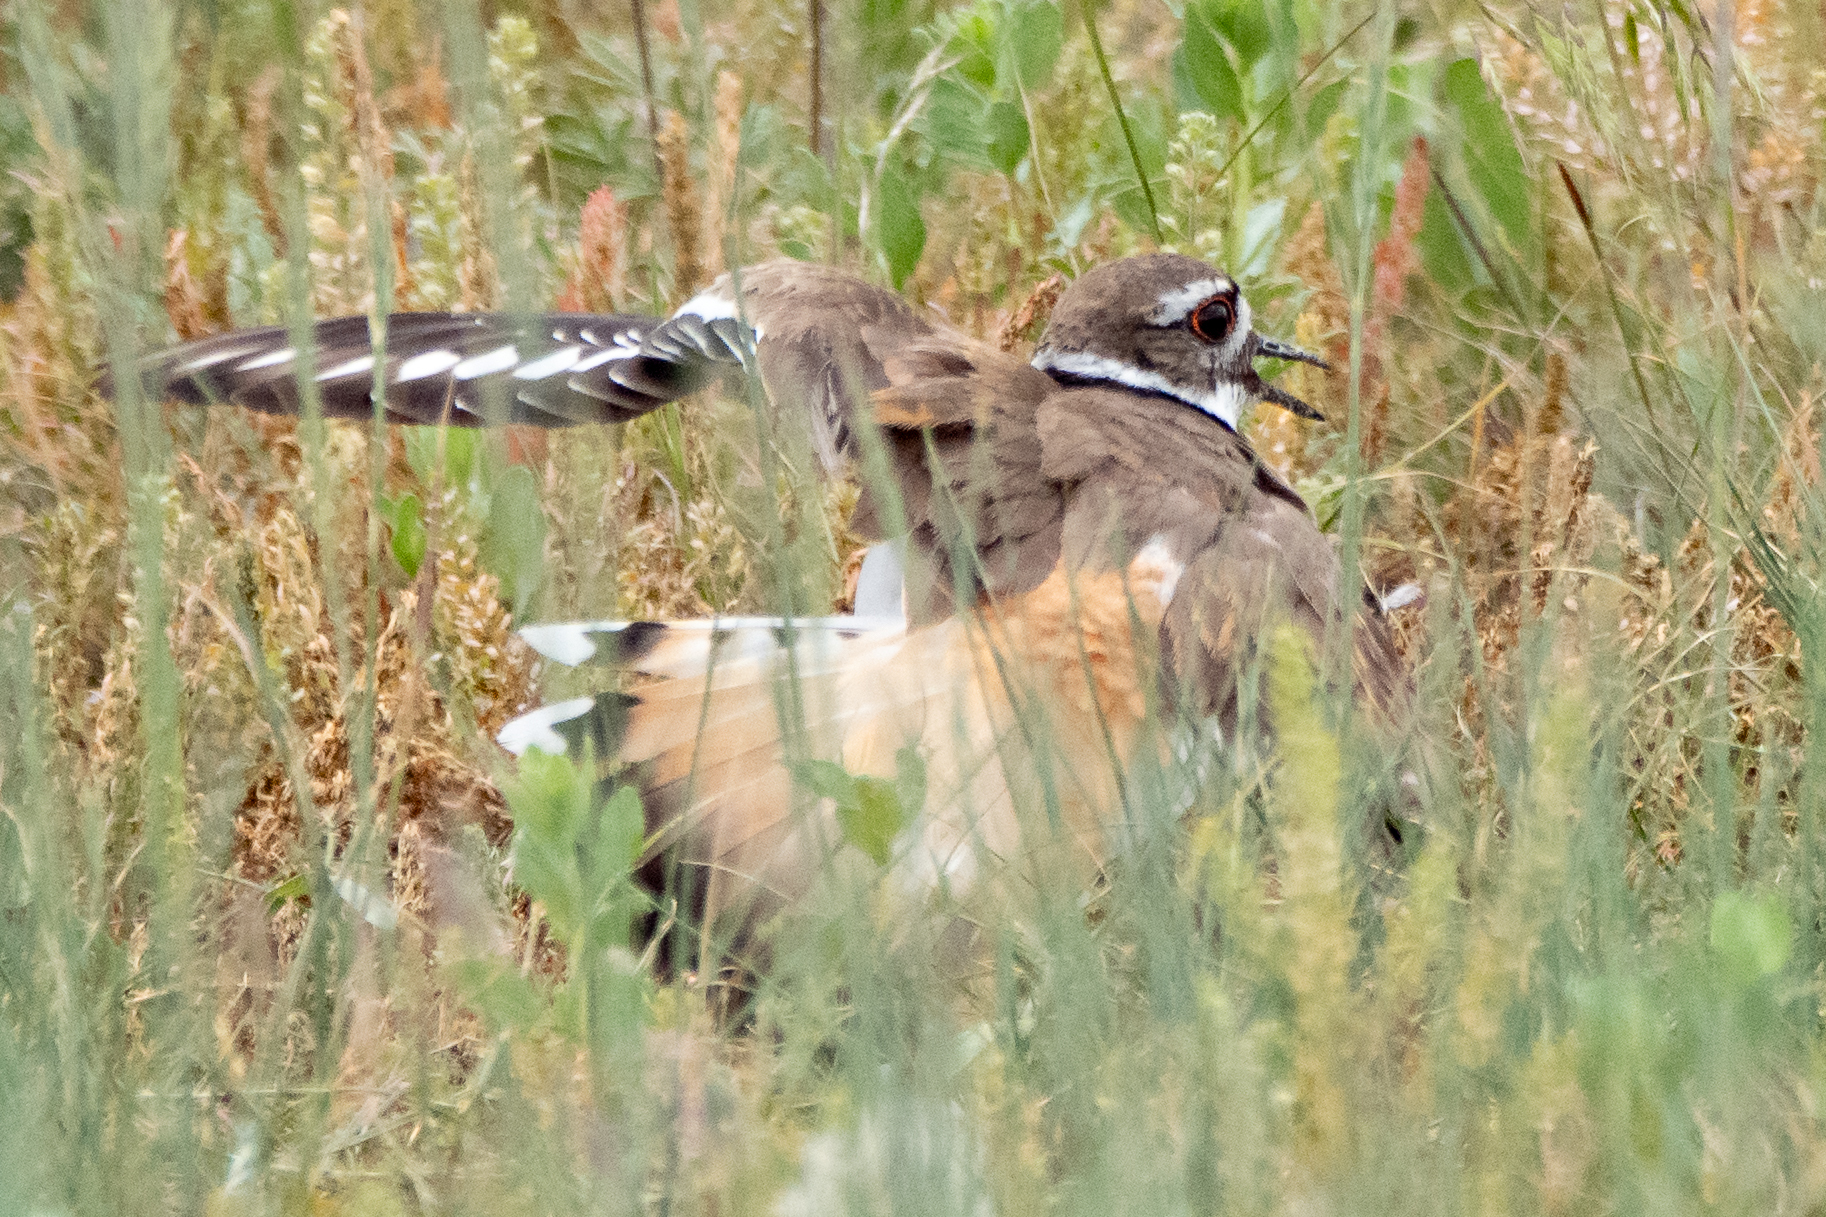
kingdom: Animalia
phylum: Chordata
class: Aves
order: Charadriiformes
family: Charadriidae
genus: Charadrius
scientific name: Charadrius vociferus
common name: Killdeer
